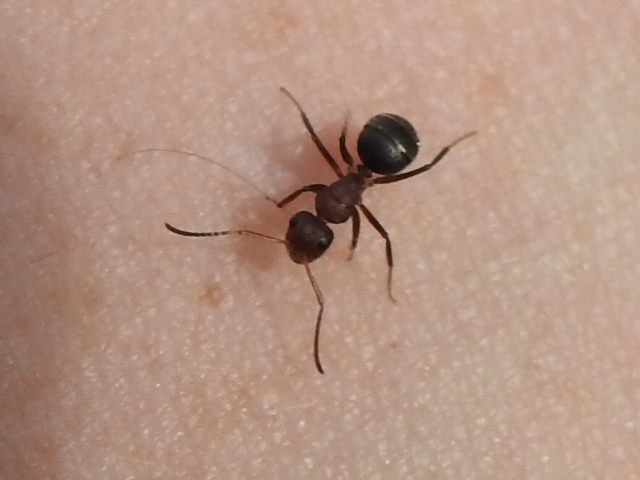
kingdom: Animalia
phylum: Arthropoda
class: Insecta
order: Hymenoptera
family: Formicidae
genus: Camponotus
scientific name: Camponotus planatus
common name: Compact carpenter ant
